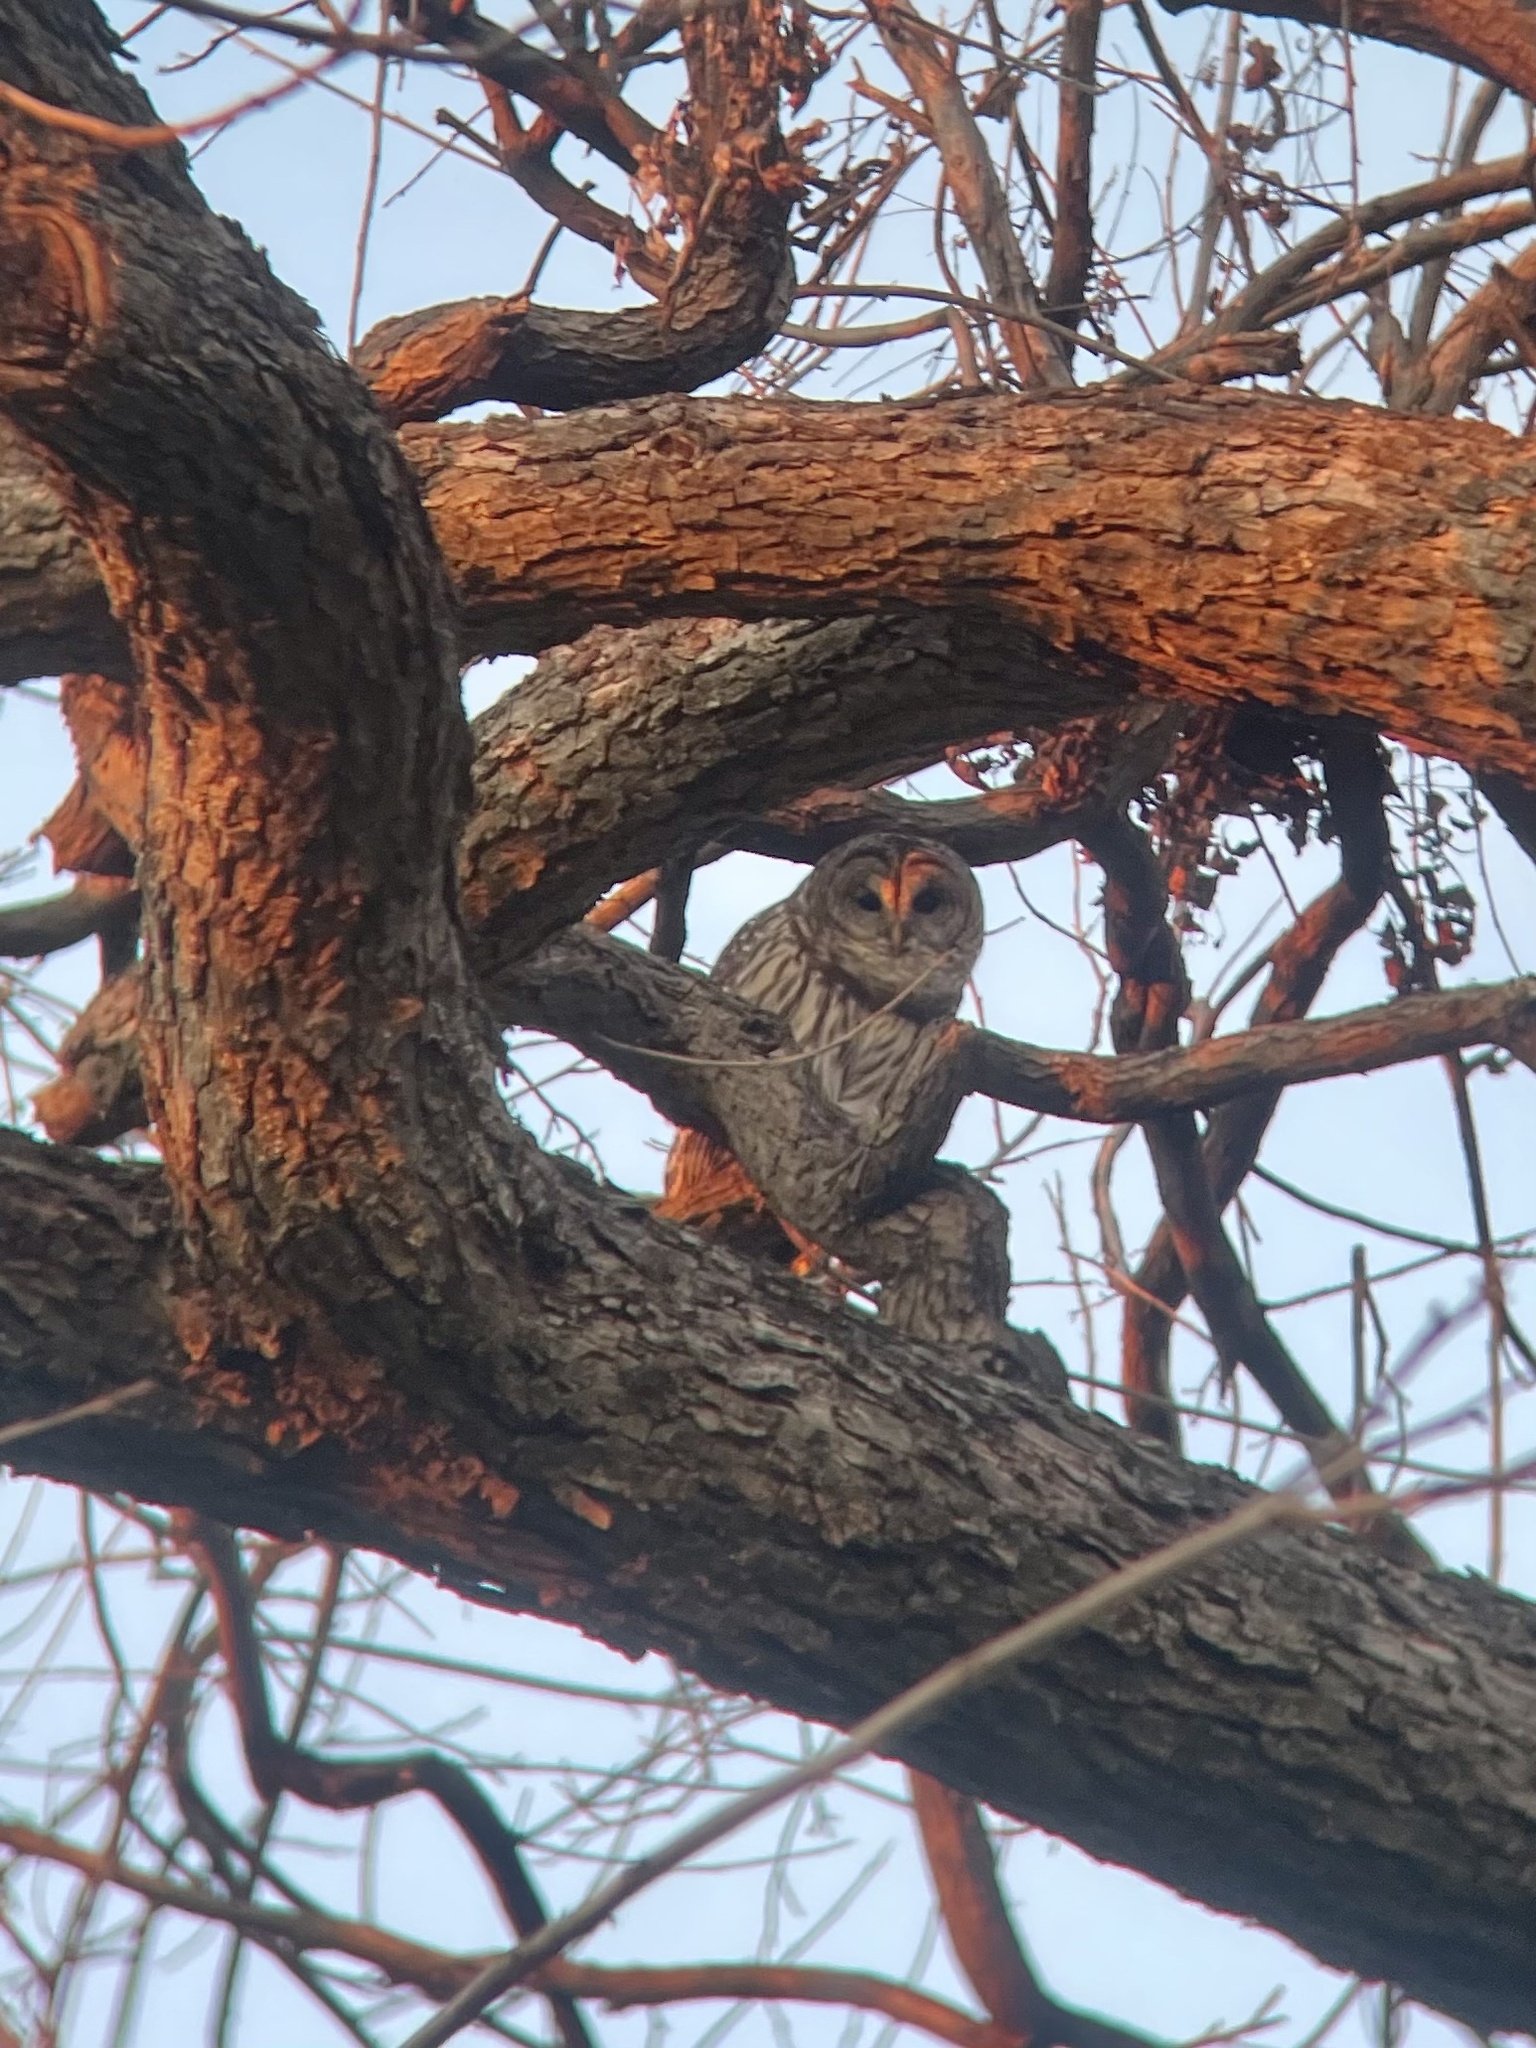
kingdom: Animalia
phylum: Chordata
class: Aves
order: Strigiformes
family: Strigidae
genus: Strix
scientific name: Strix varia
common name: Barred owl
